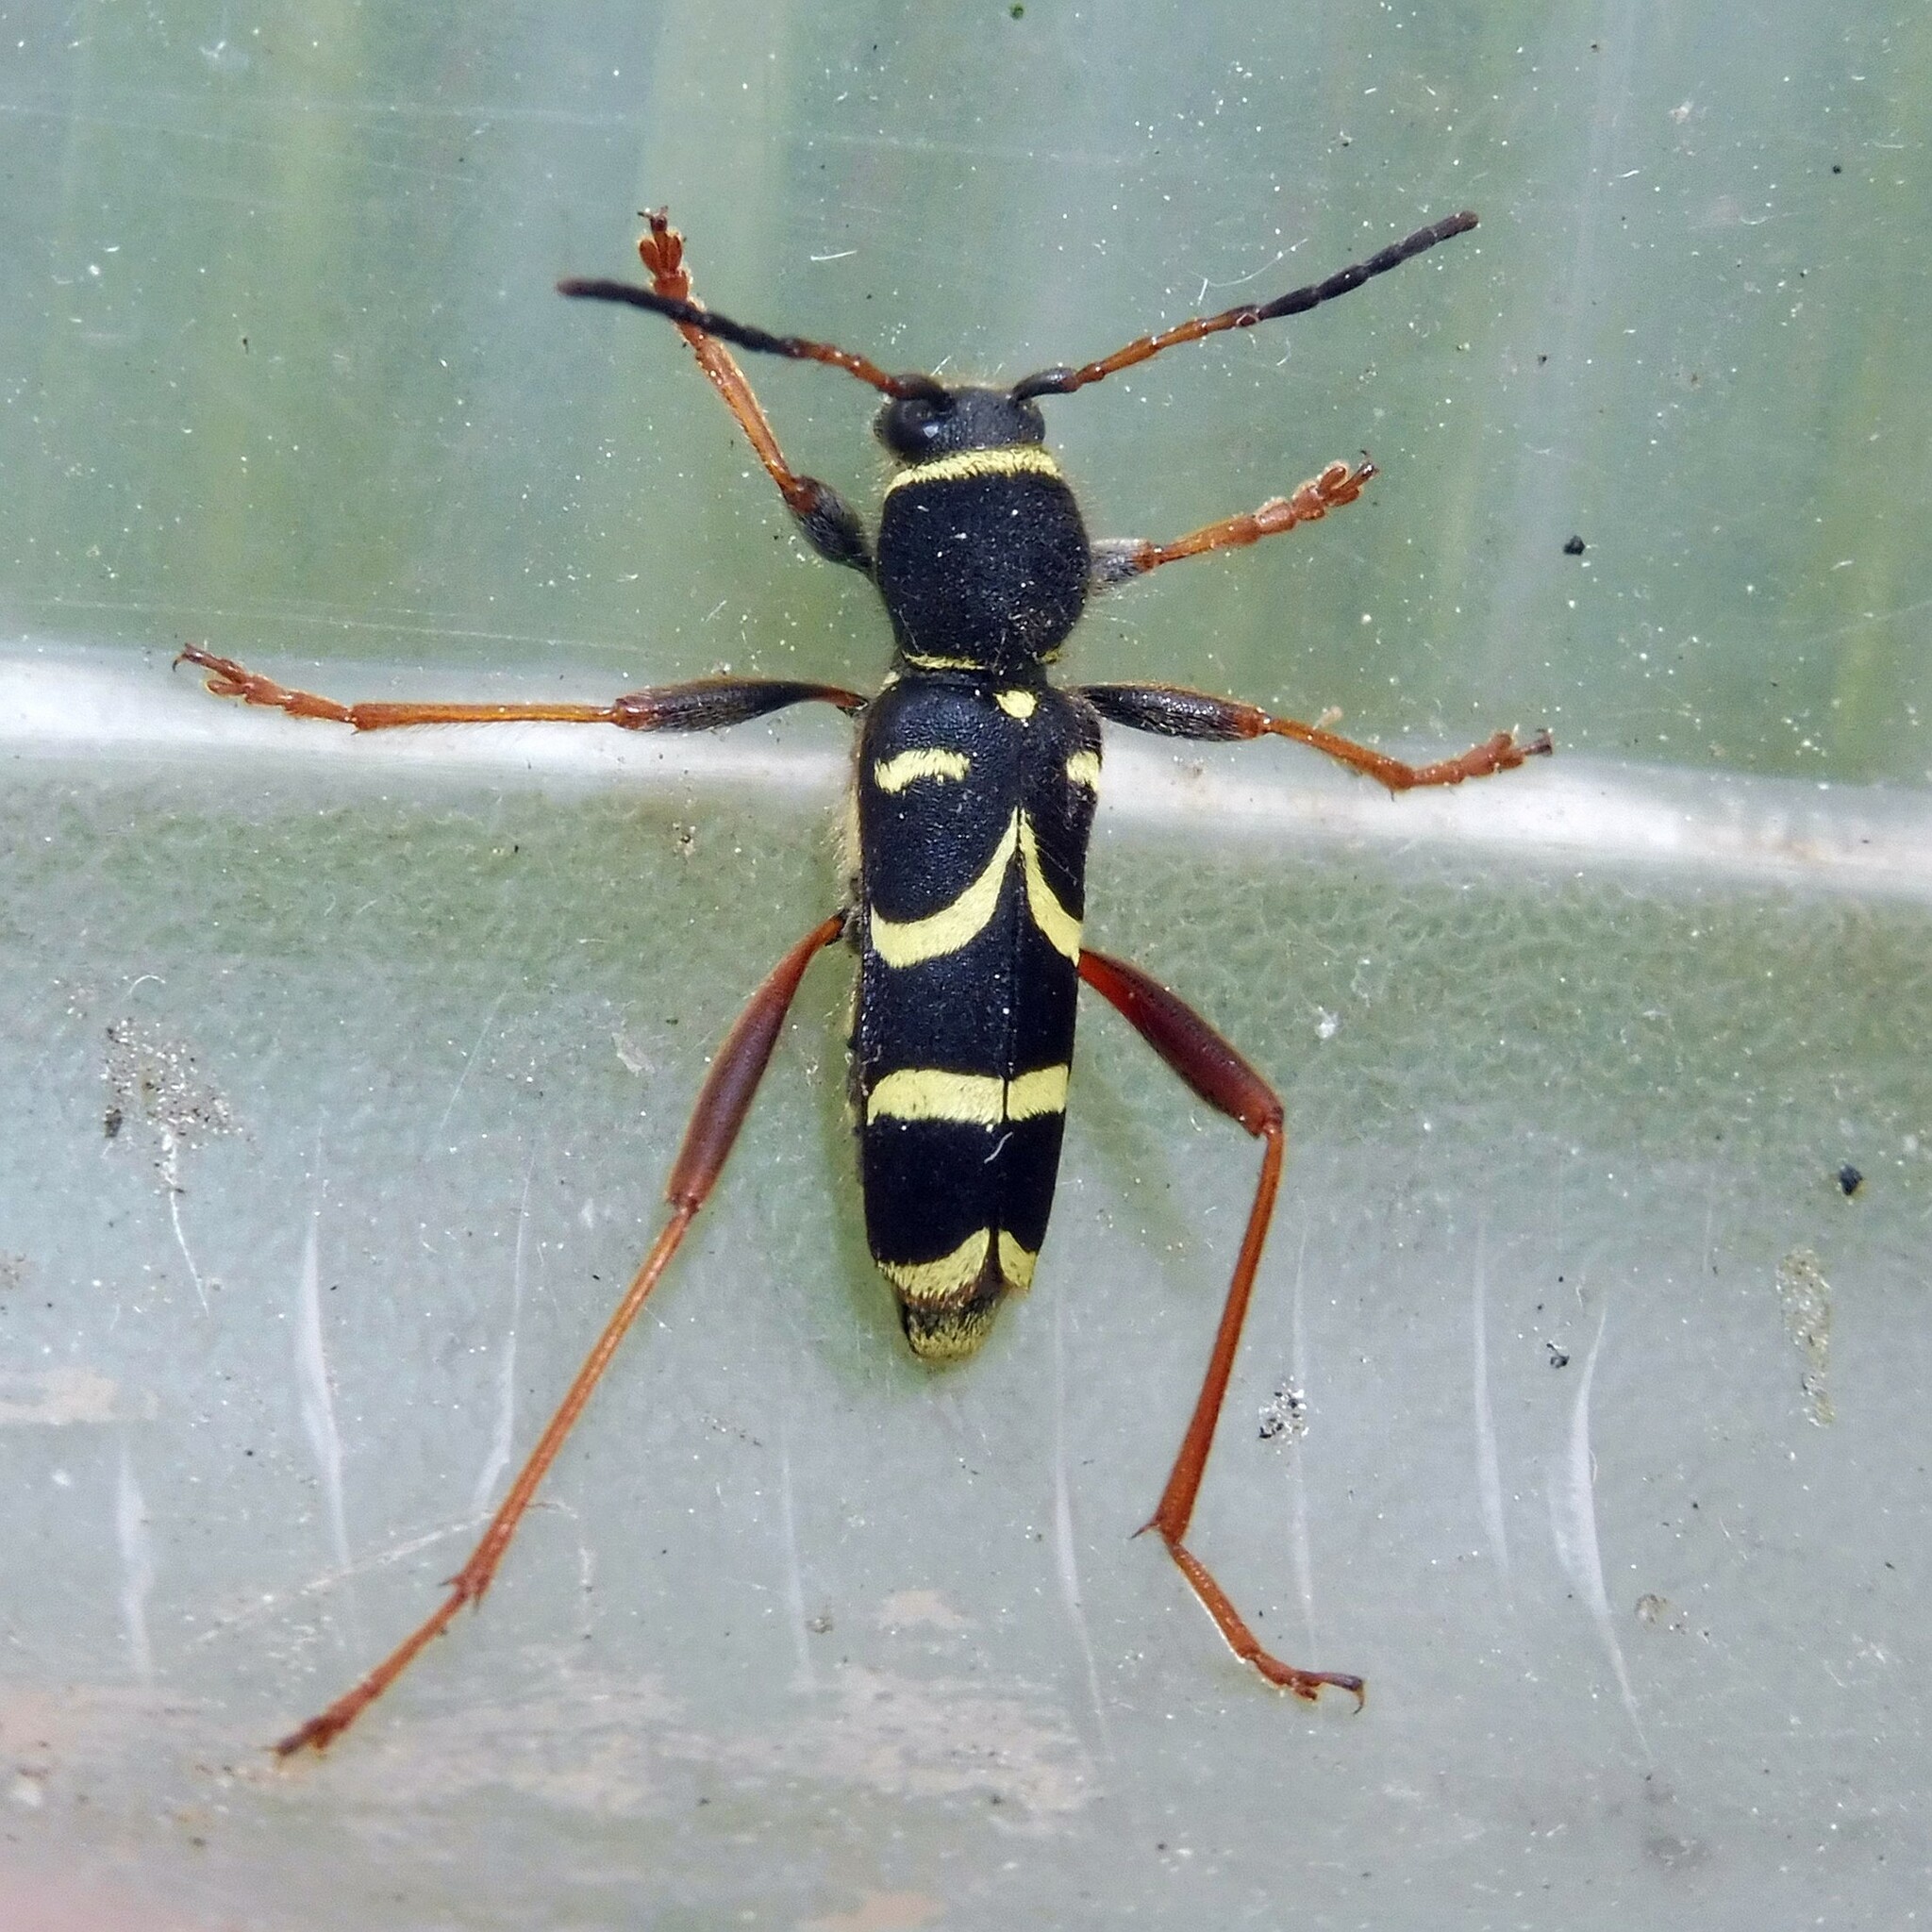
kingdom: Animalia
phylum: Arthropoda
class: Insecta
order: Coleoptera
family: Cerambycidae
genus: Clytus
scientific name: Clytus arietis
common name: Wasp beetle
